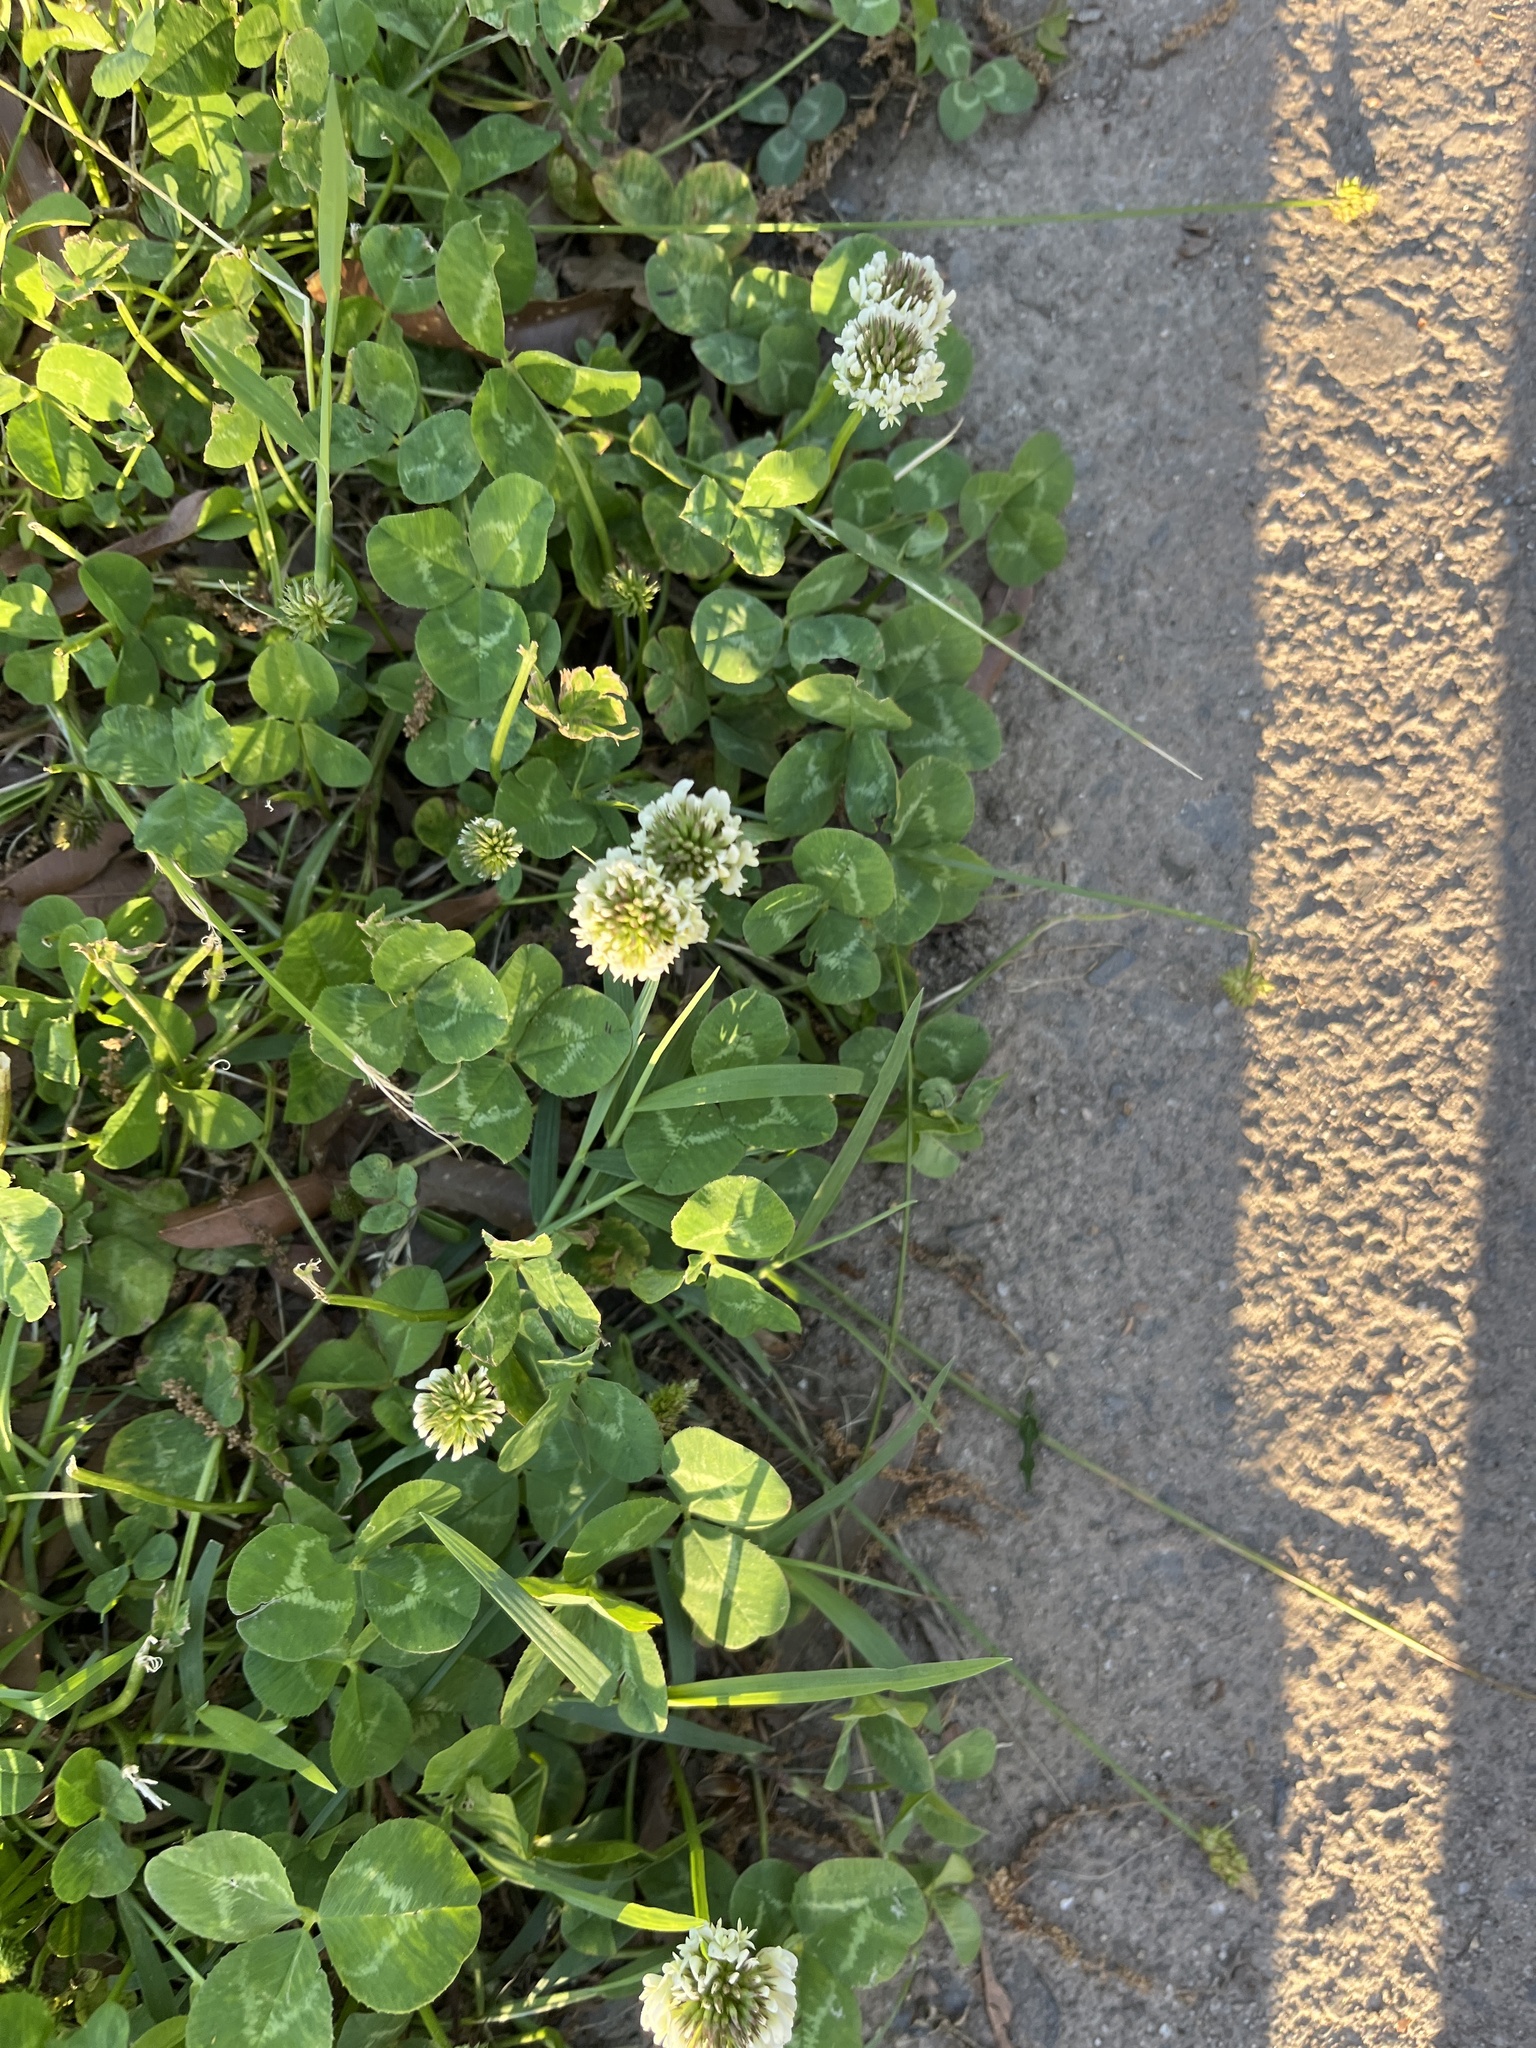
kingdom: Plantae
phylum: Tracheophyta
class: Magnoliopsida
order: Fabales
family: Fabaceae
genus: Trifolium
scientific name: Trifolium repens
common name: White clover
